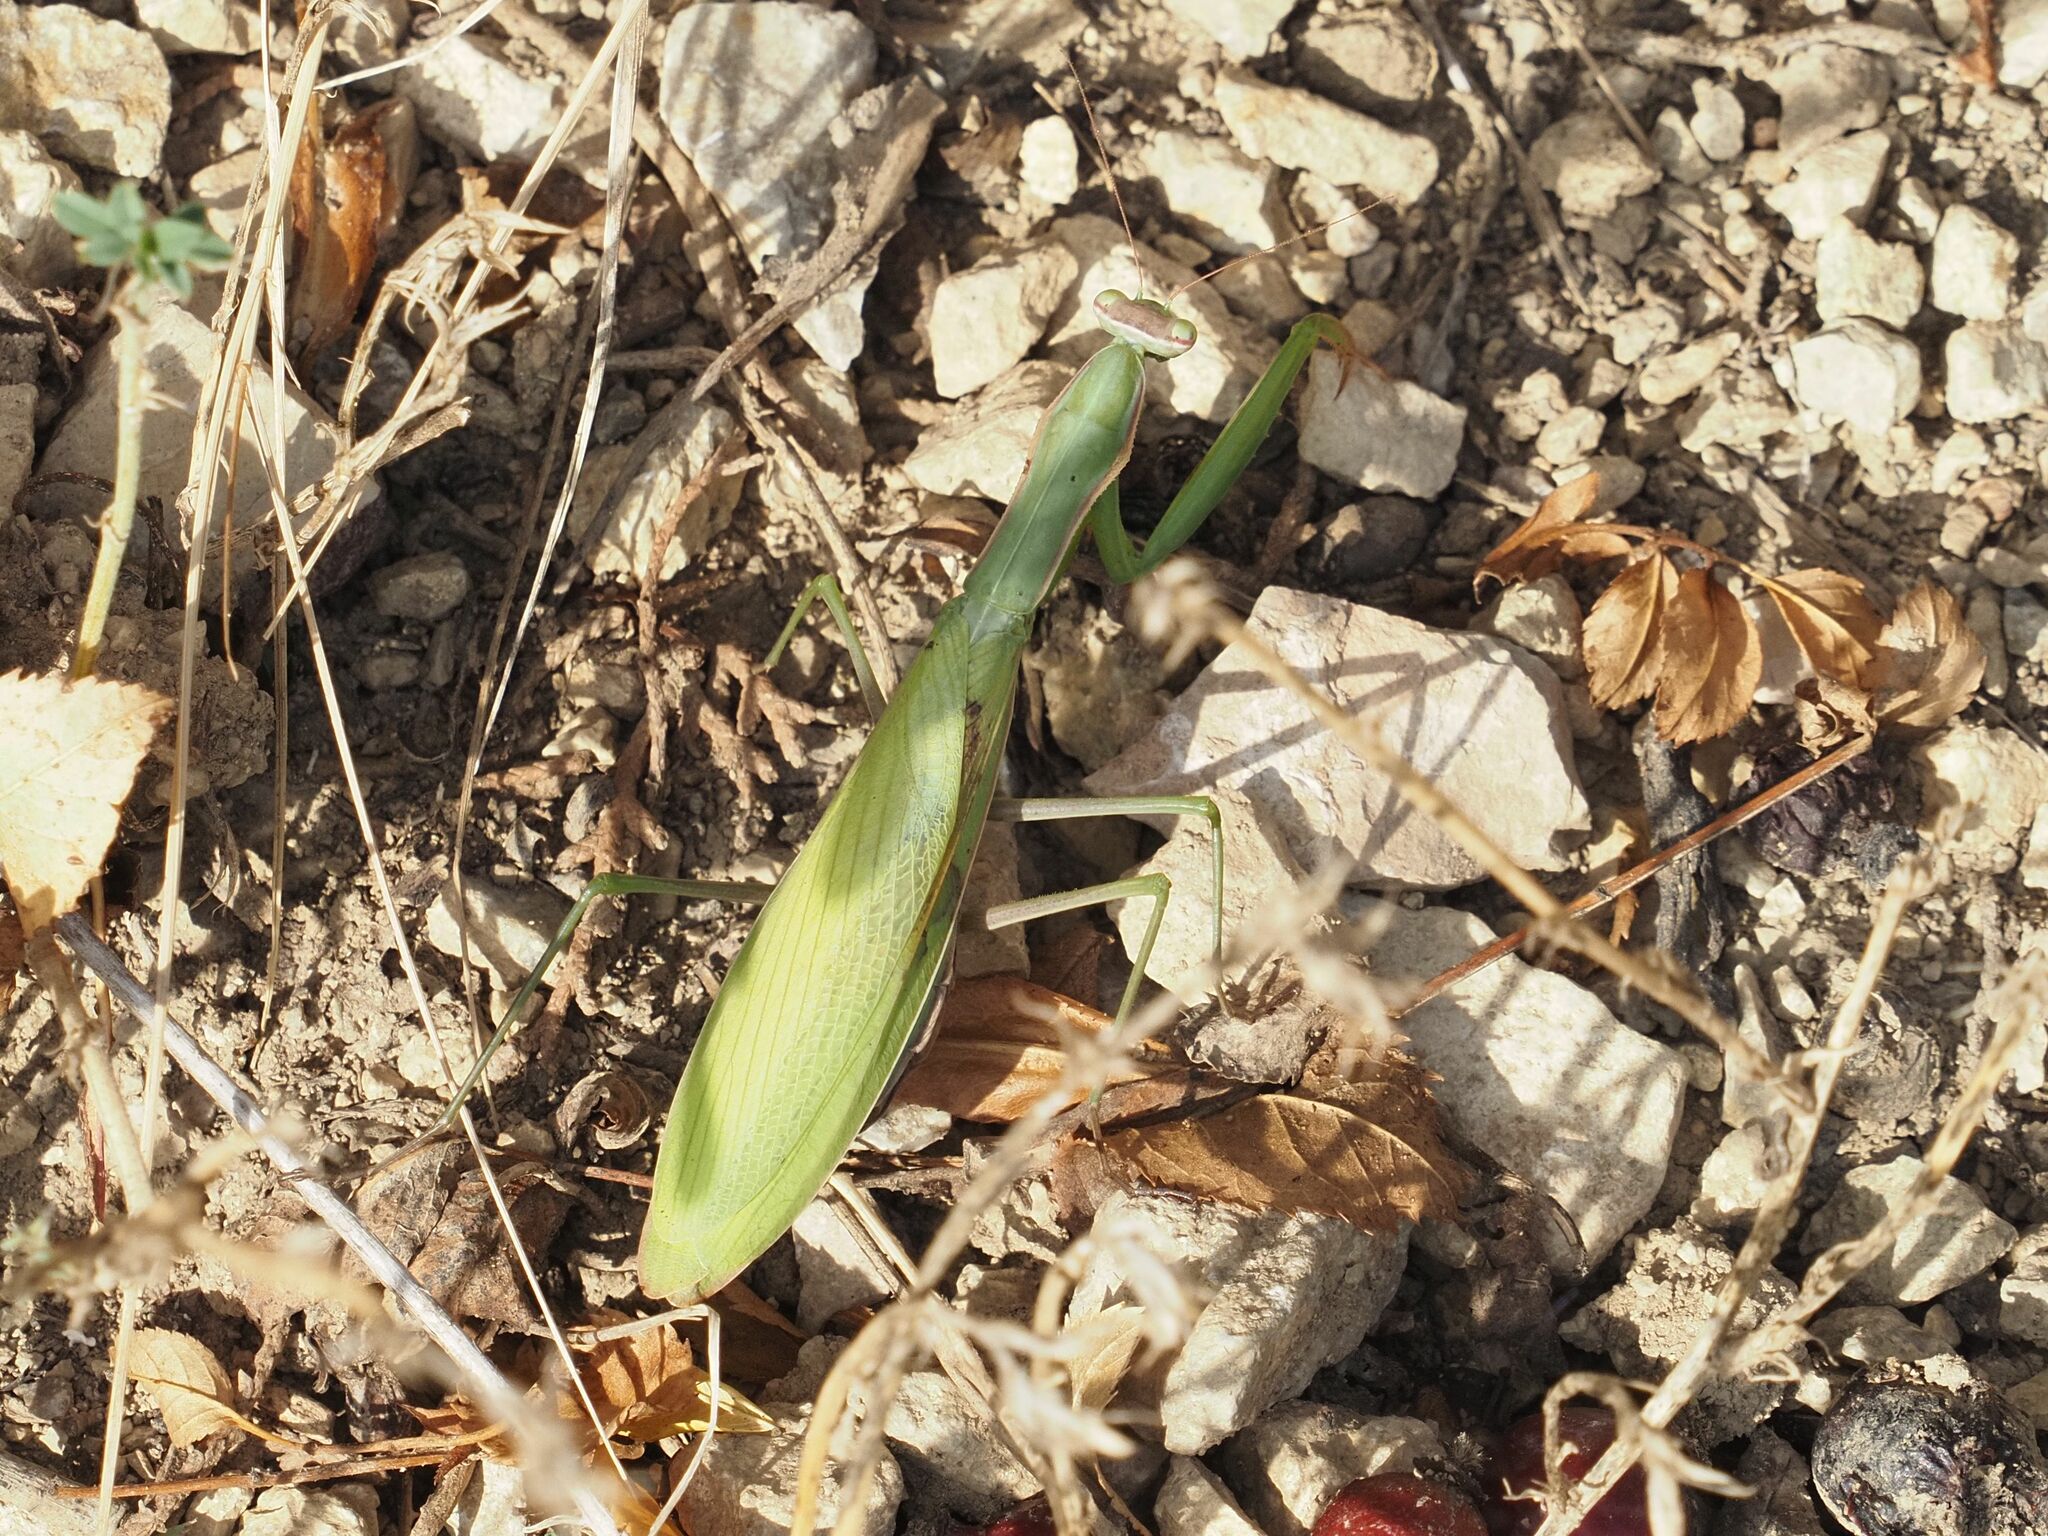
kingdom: Animalia
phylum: Arthropoda
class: Insecta
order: Mantodea
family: Mantidae
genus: Mantis
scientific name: Mantis religiosa
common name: Praying mantis
